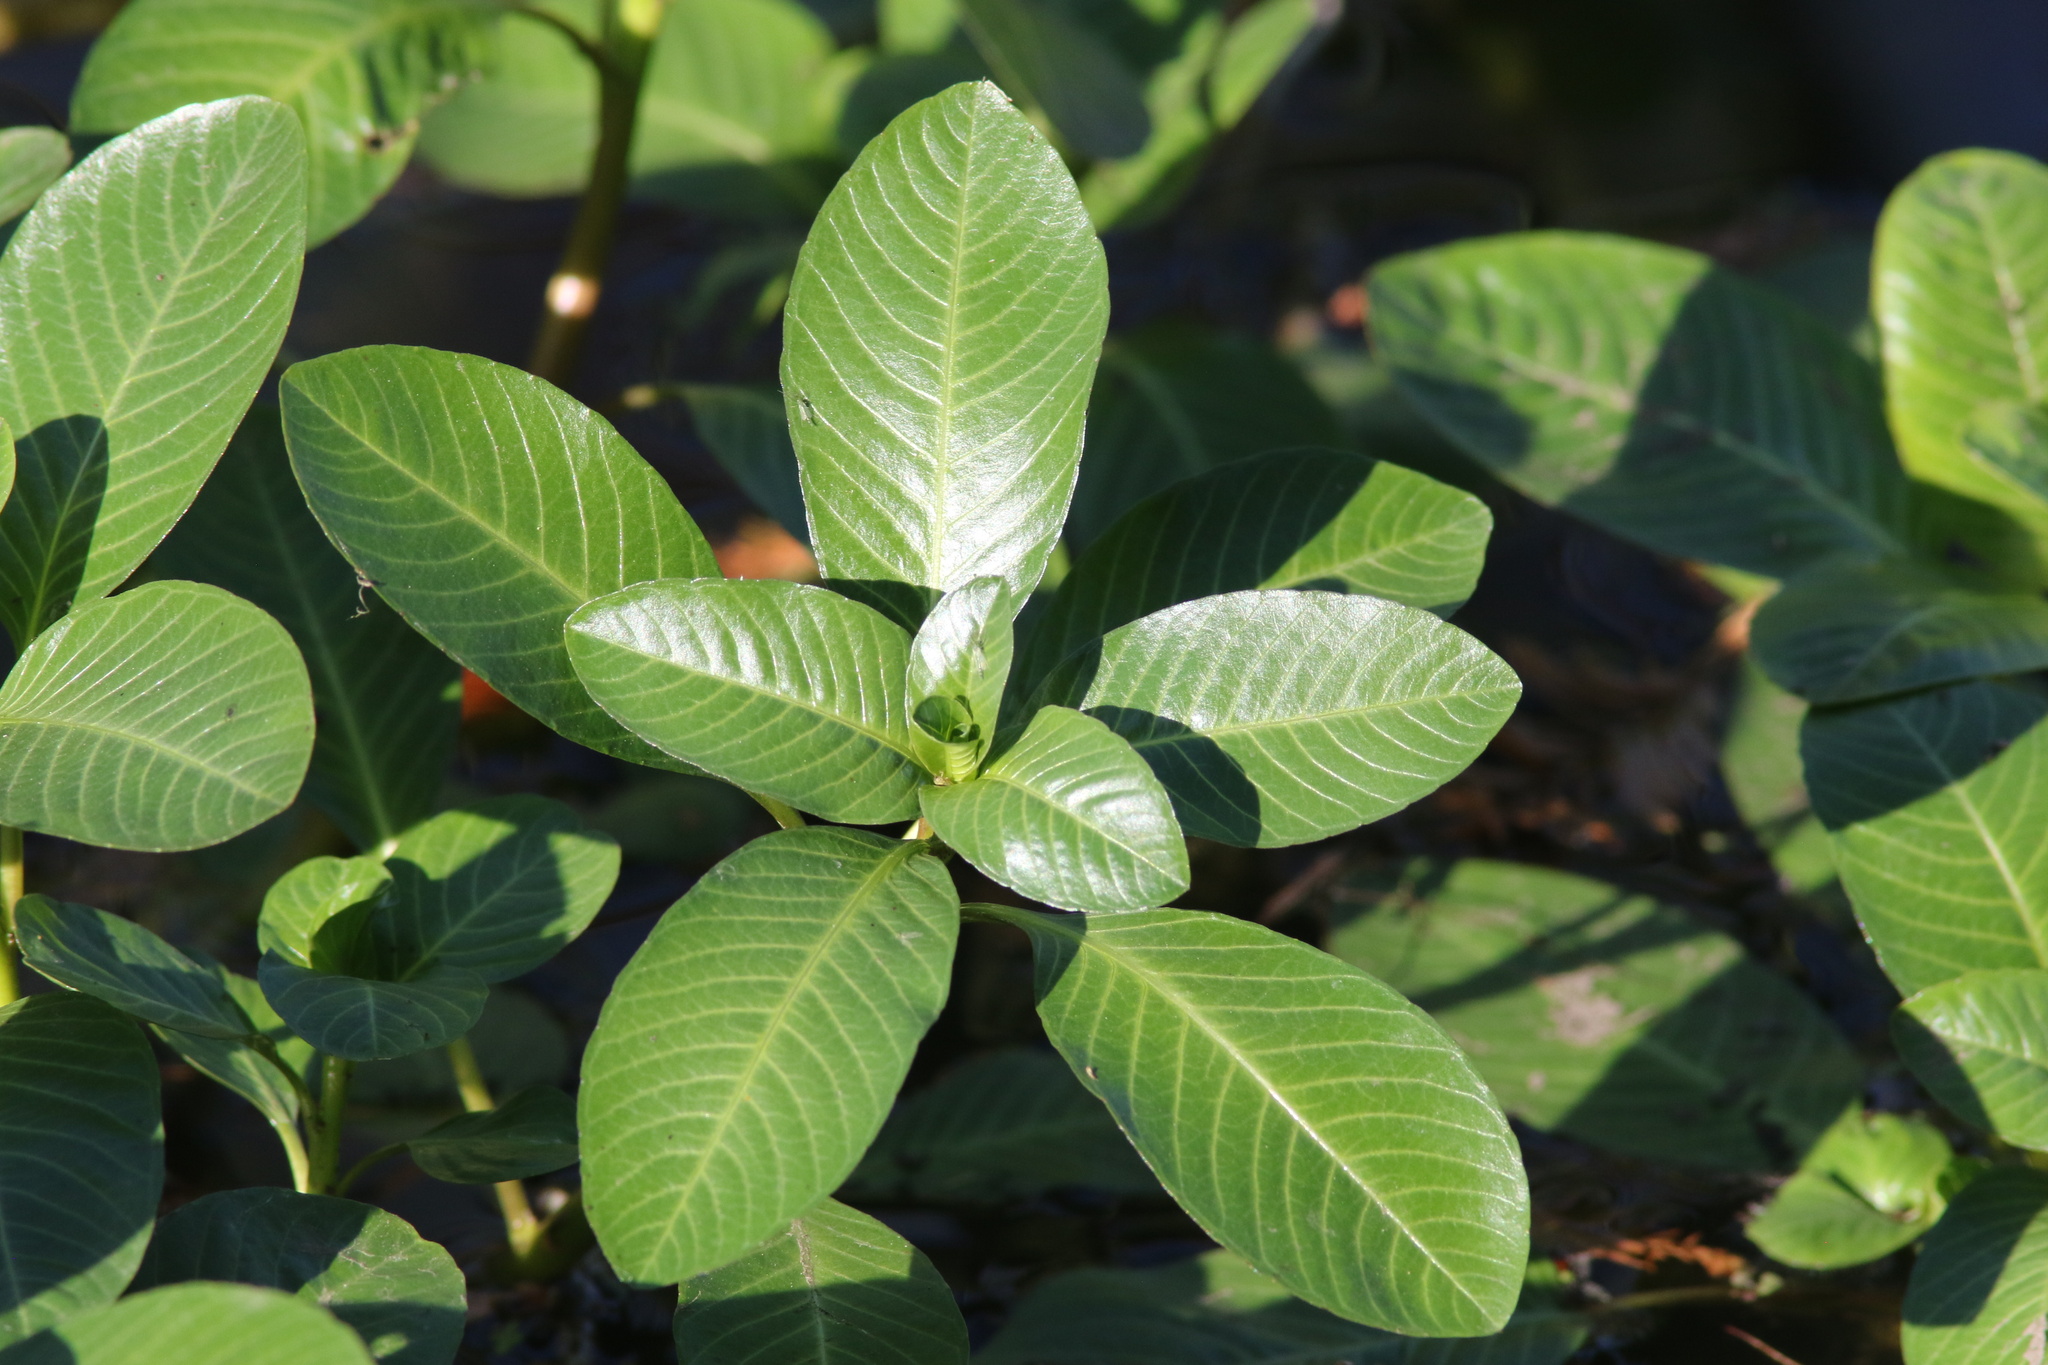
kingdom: Plantae
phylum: Tracheophyta
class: Magnoliopsida
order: Myrtales
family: Onagraceae
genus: Ludwigia
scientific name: Ludwigia peploides
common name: Floating primrose-willow
